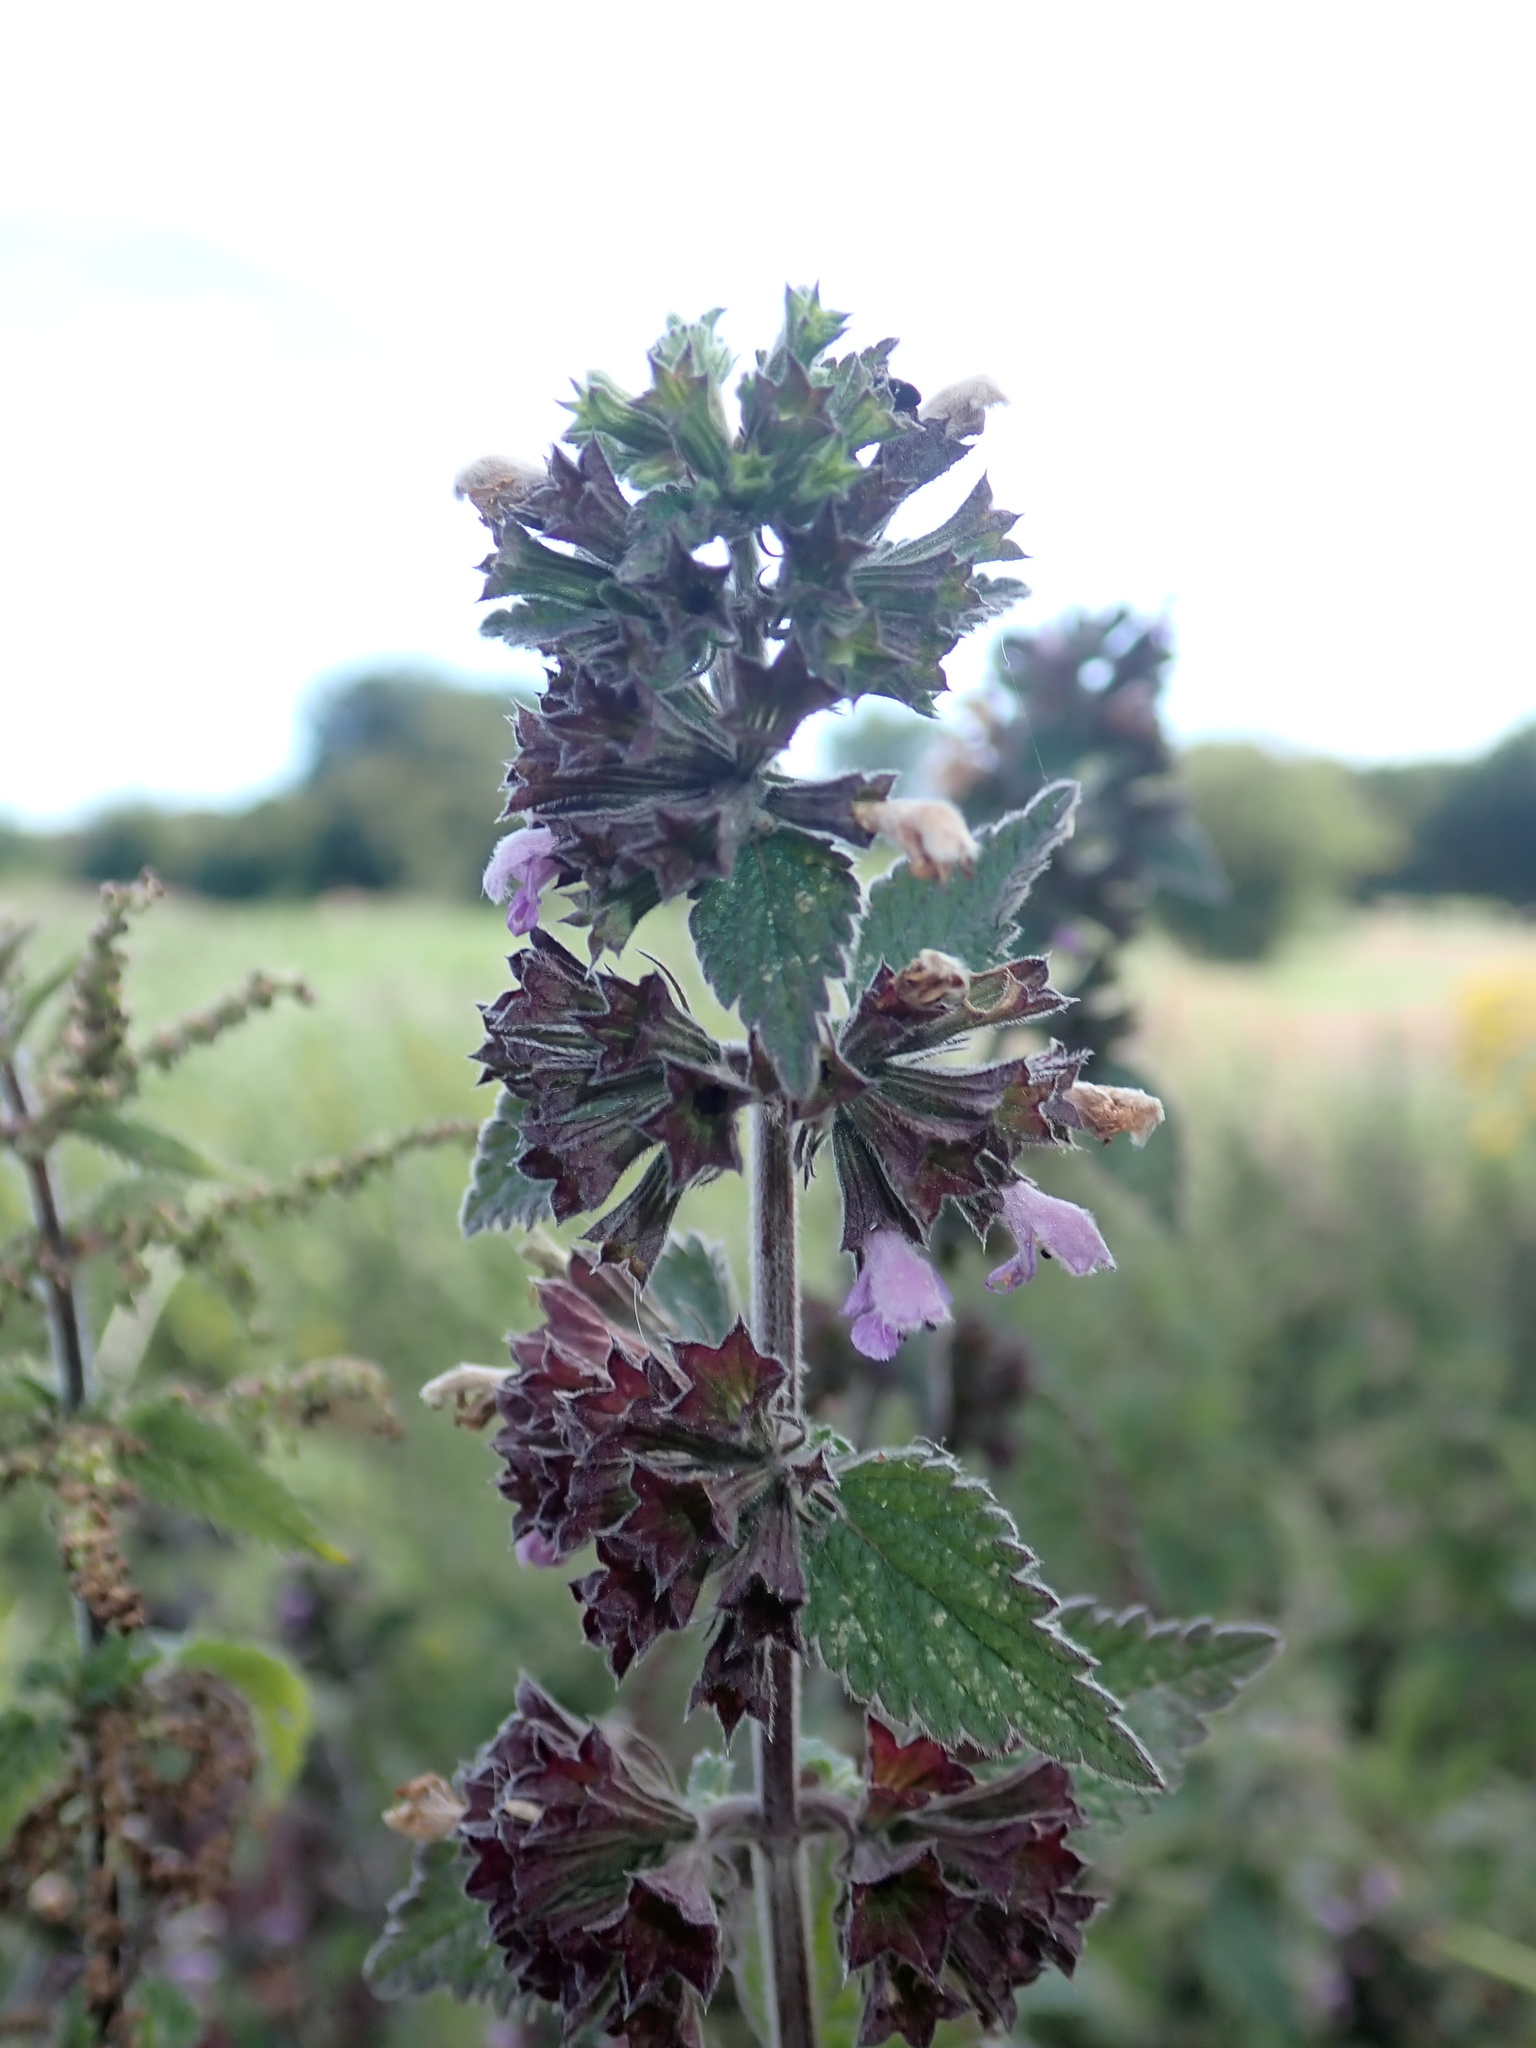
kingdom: Plantae
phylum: Tracheophyta
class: Magnoliopsida
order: Lamiales
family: Lamiaceae
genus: Ballota
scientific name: Ballota nigra
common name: Black horehound
